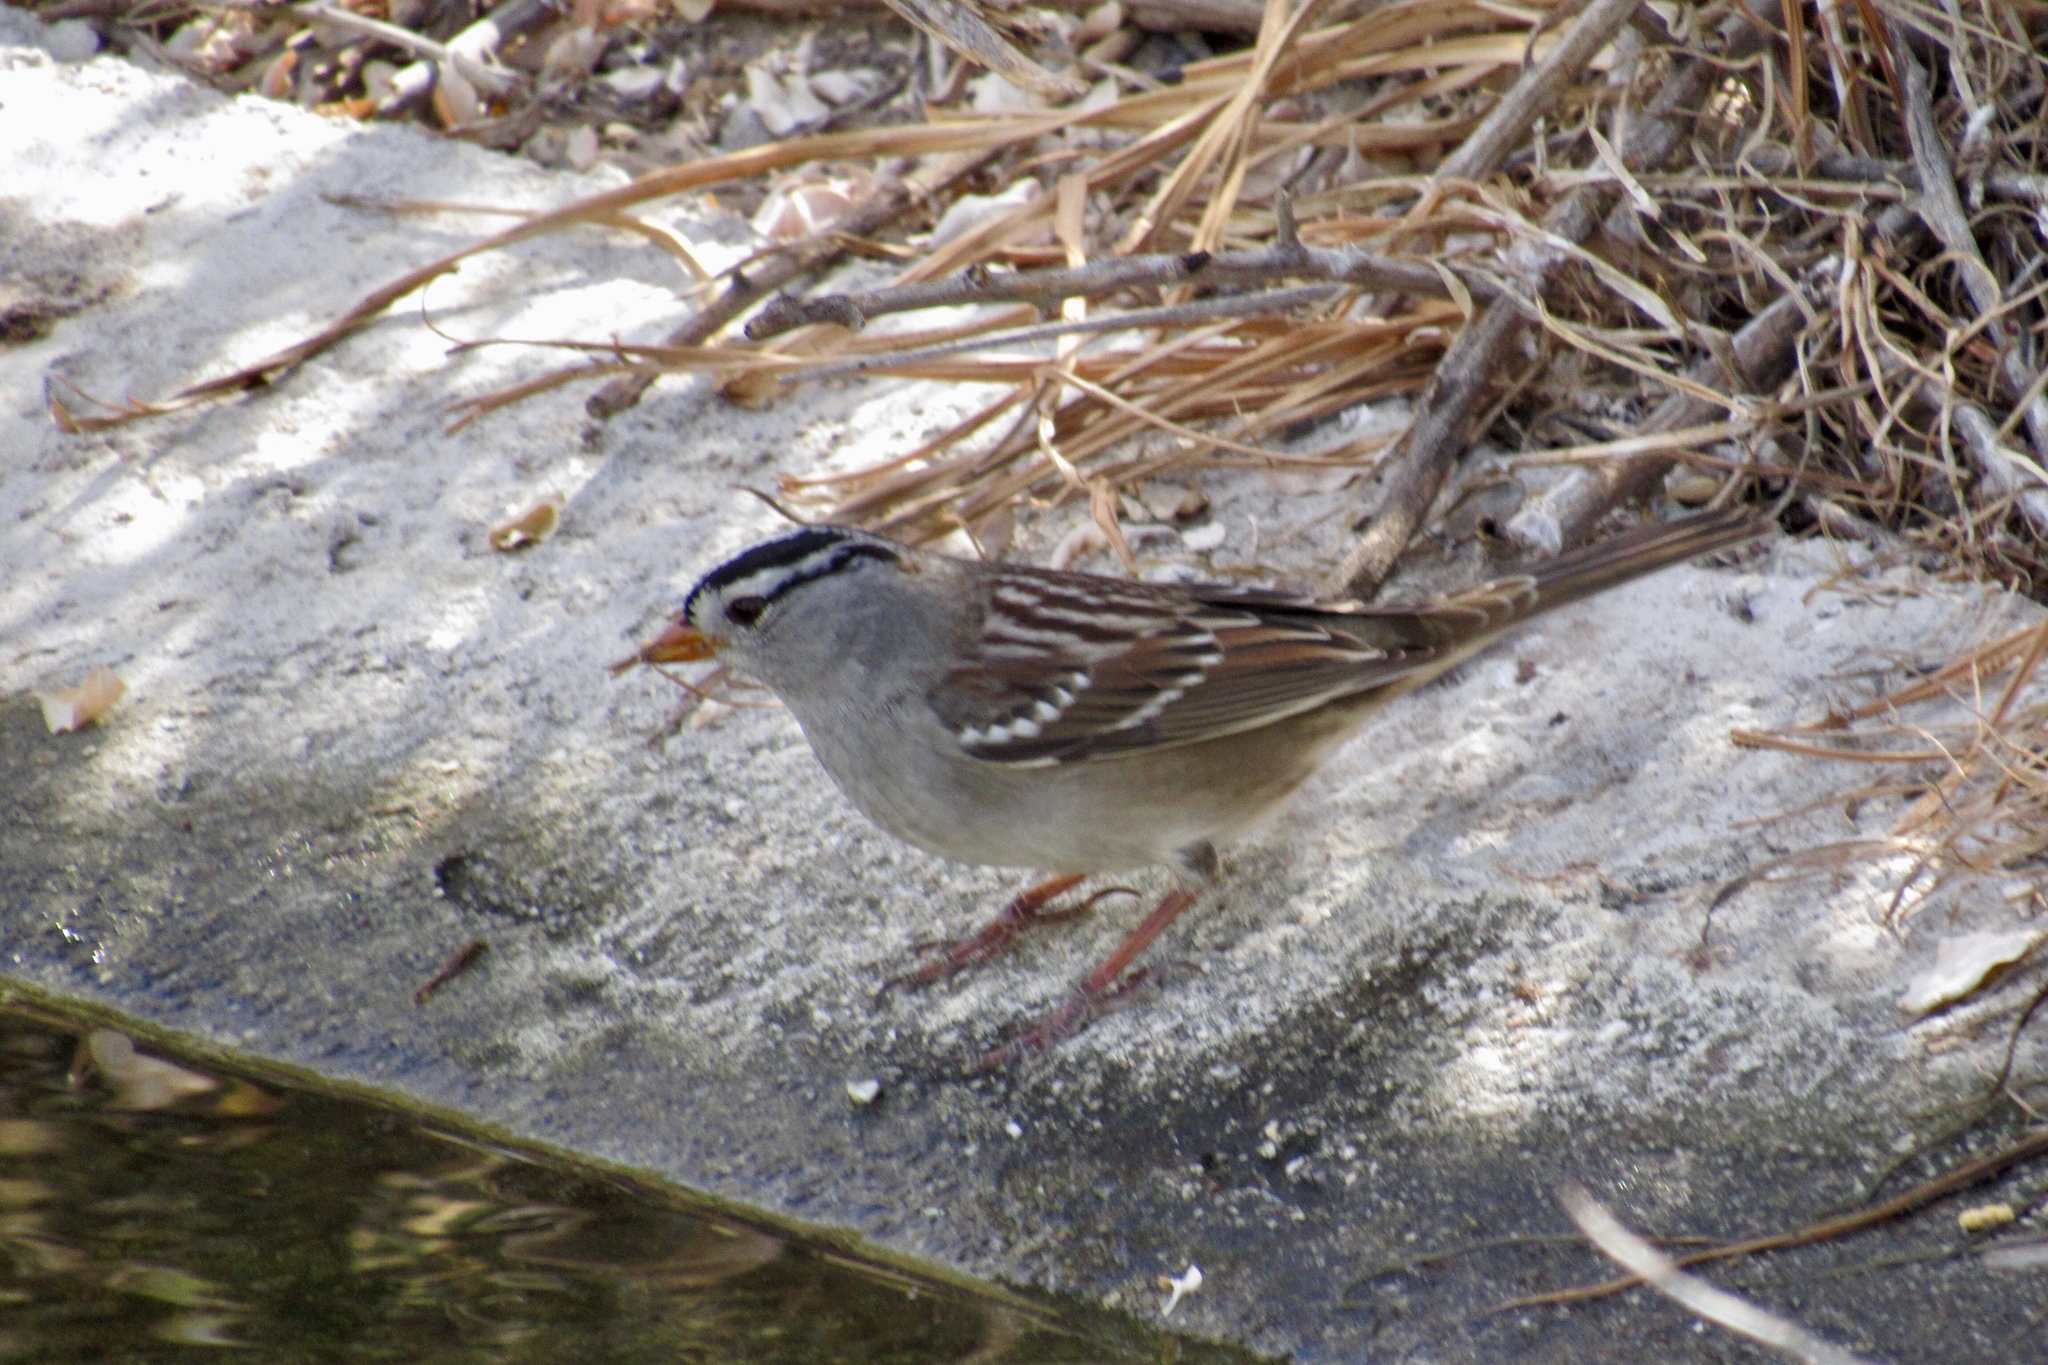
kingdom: Animalia
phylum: Chordata
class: Aves
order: Passeriformes
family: Passerellidae
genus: Zonotrichia
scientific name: Zonotrichia leucophrys
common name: White-crowned sparrow
